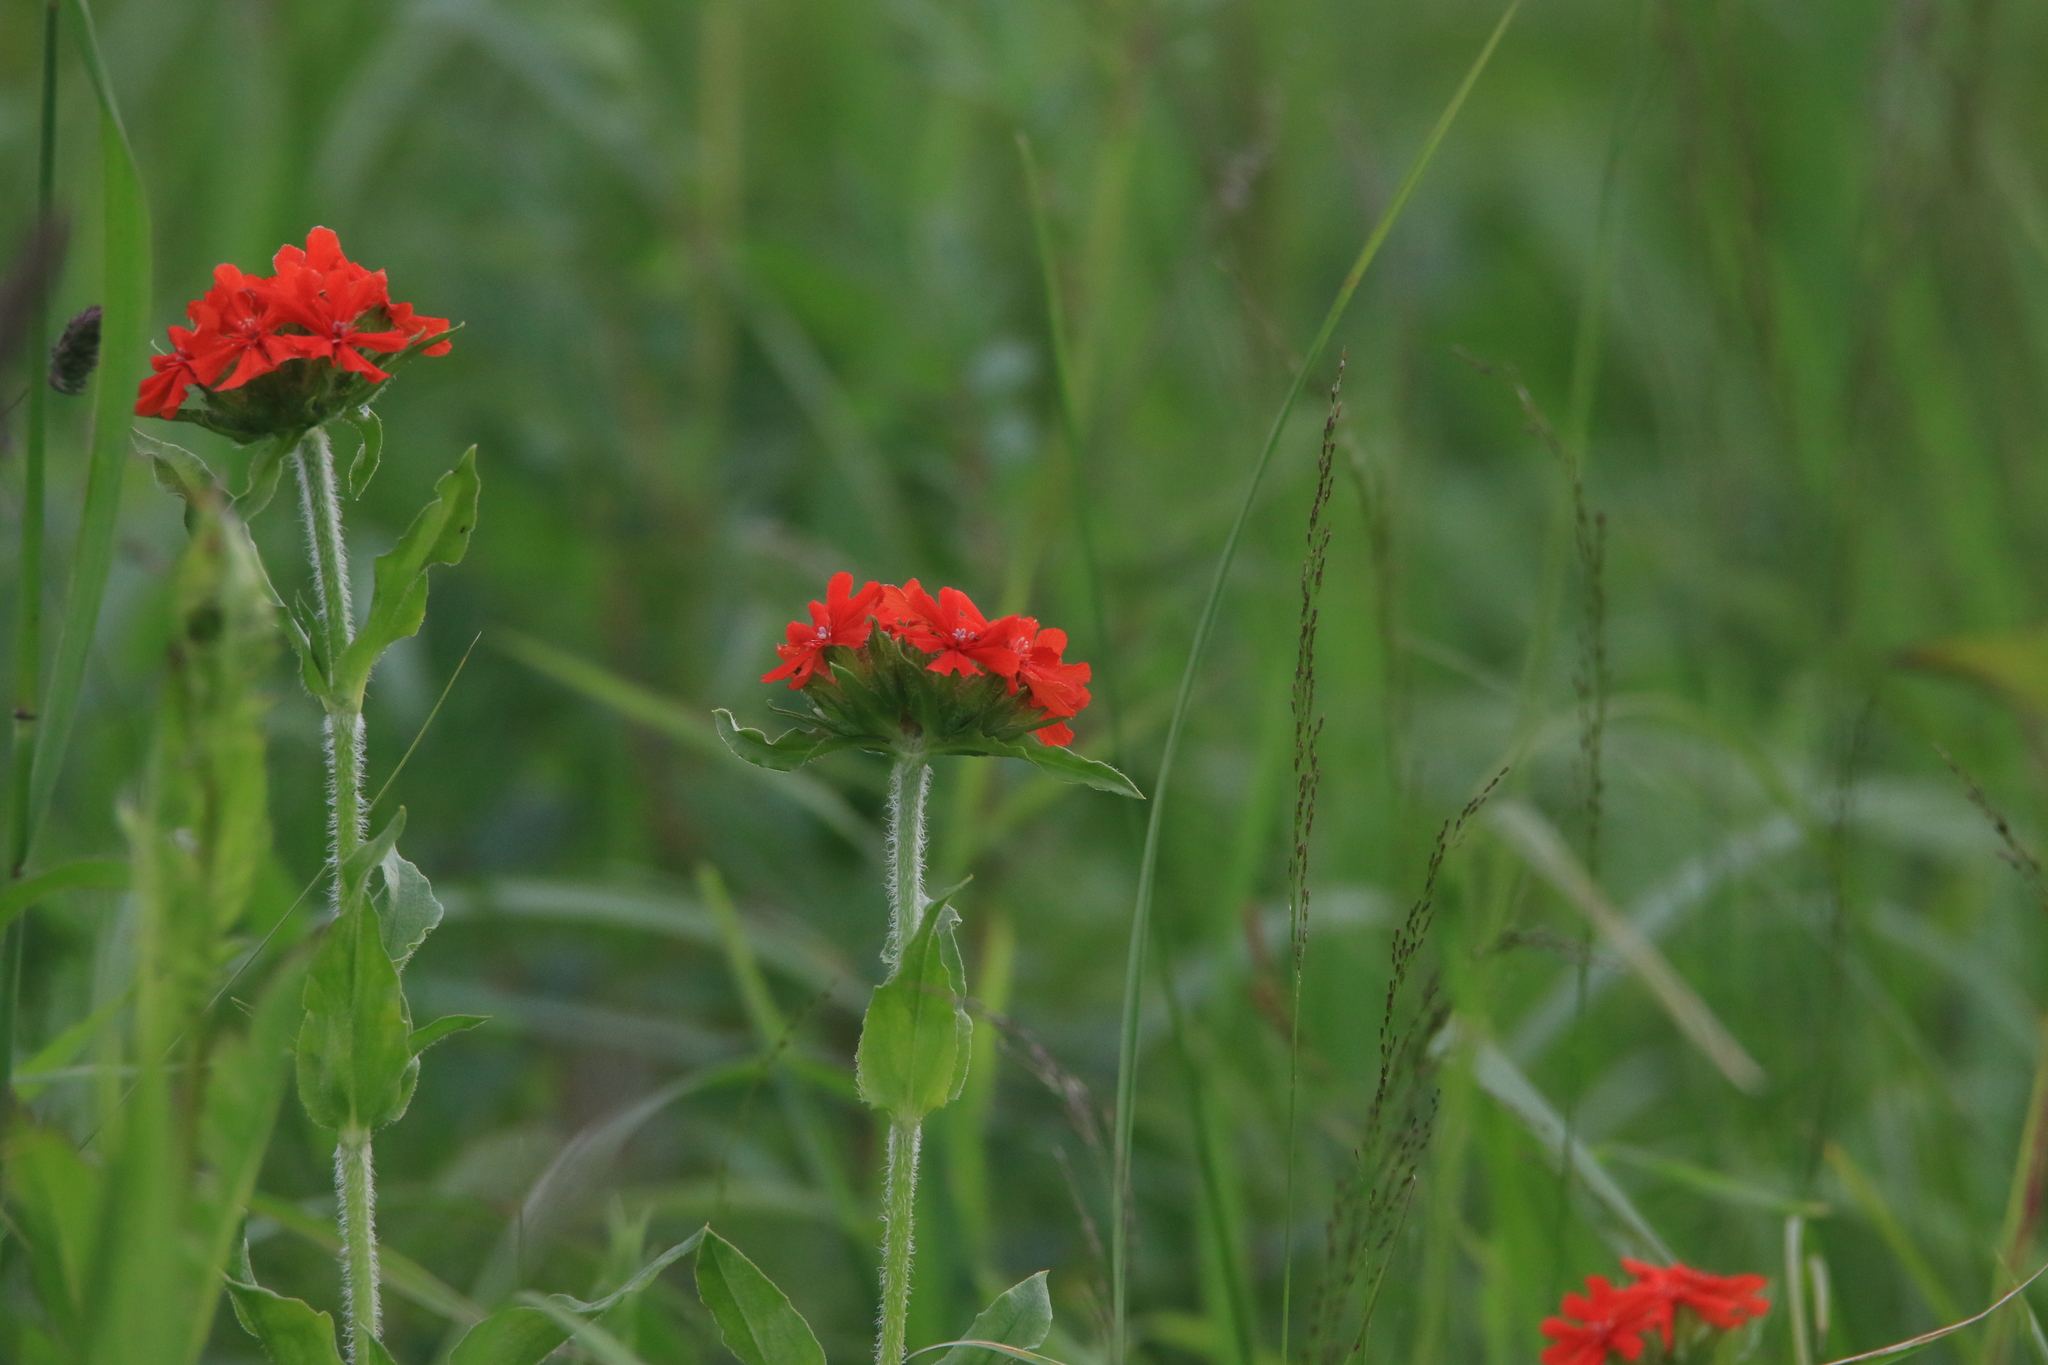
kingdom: Plantae
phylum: Tracheophyta
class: Magnoliopsida
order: Caryophyllales
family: Caryophyllaceae
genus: Silene
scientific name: Silene chalcedonica
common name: Maltese-cross
